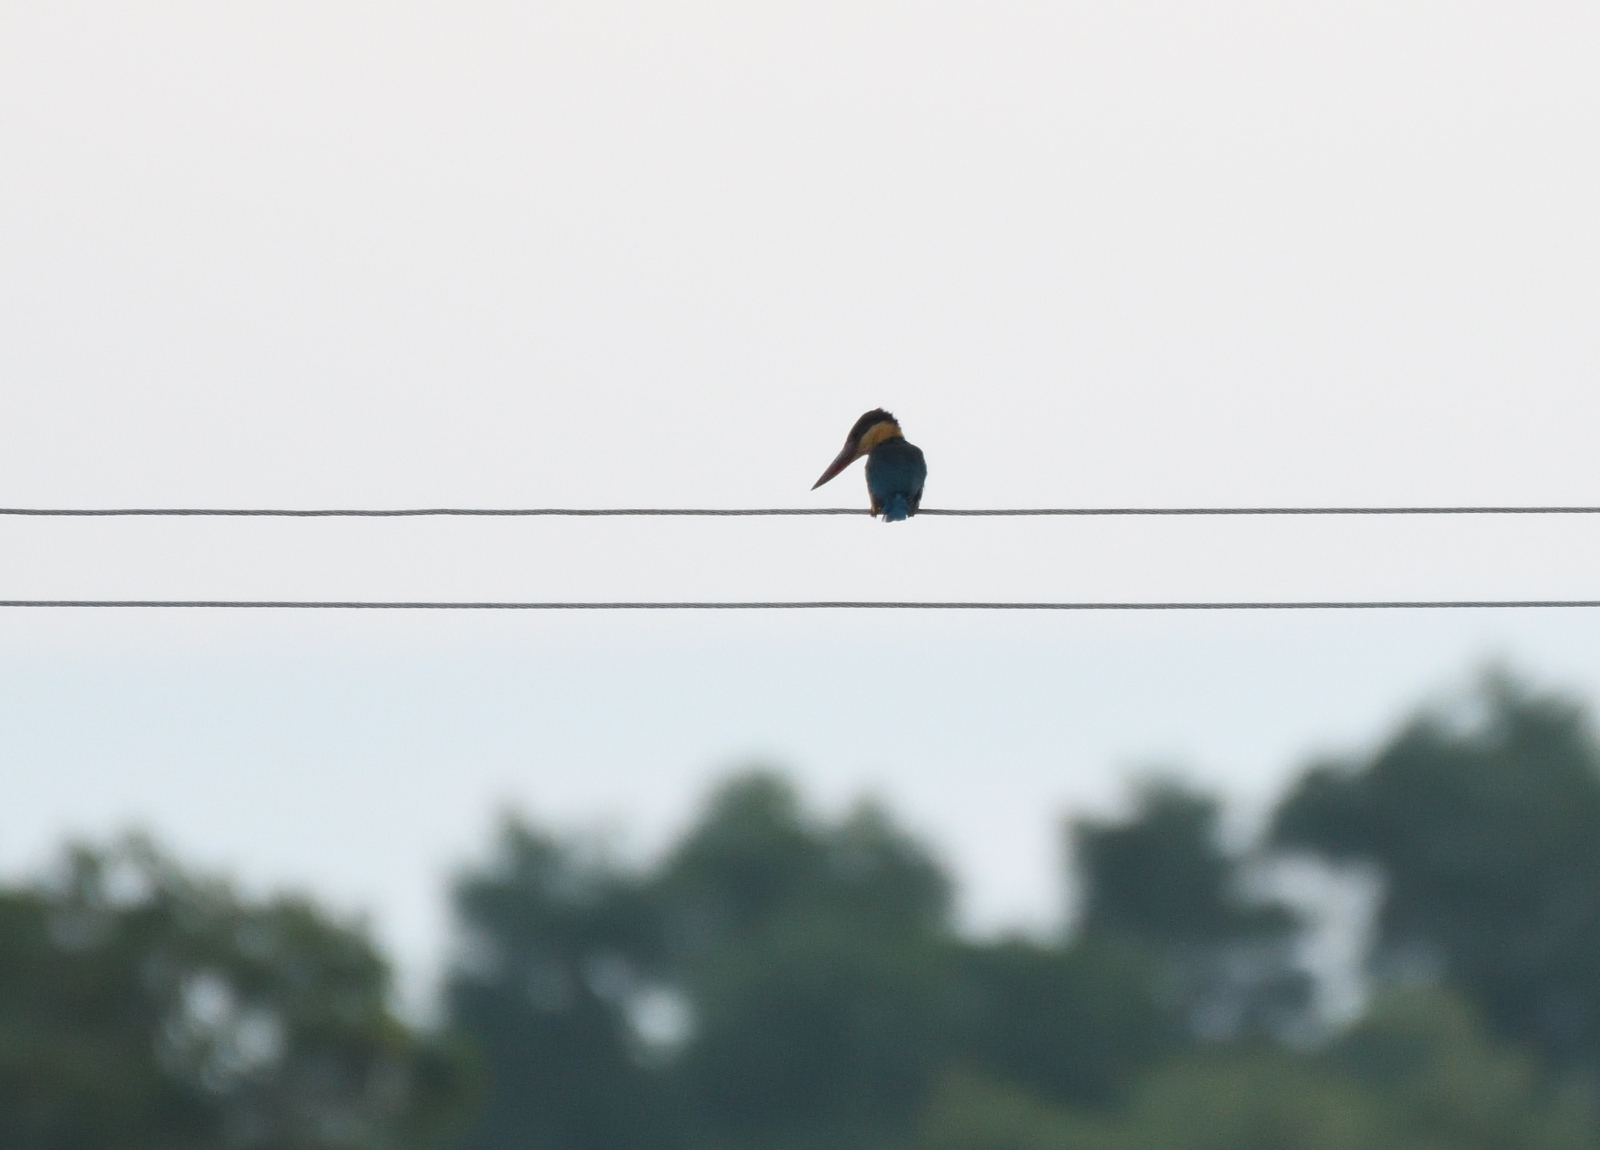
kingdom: Animalia
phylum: Chordata
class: Aves
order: Coraciiformes
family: Alcedinidae
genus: Pelargopsis
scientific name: Pelargopsis capensis
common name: Stork-billed kingfisher
